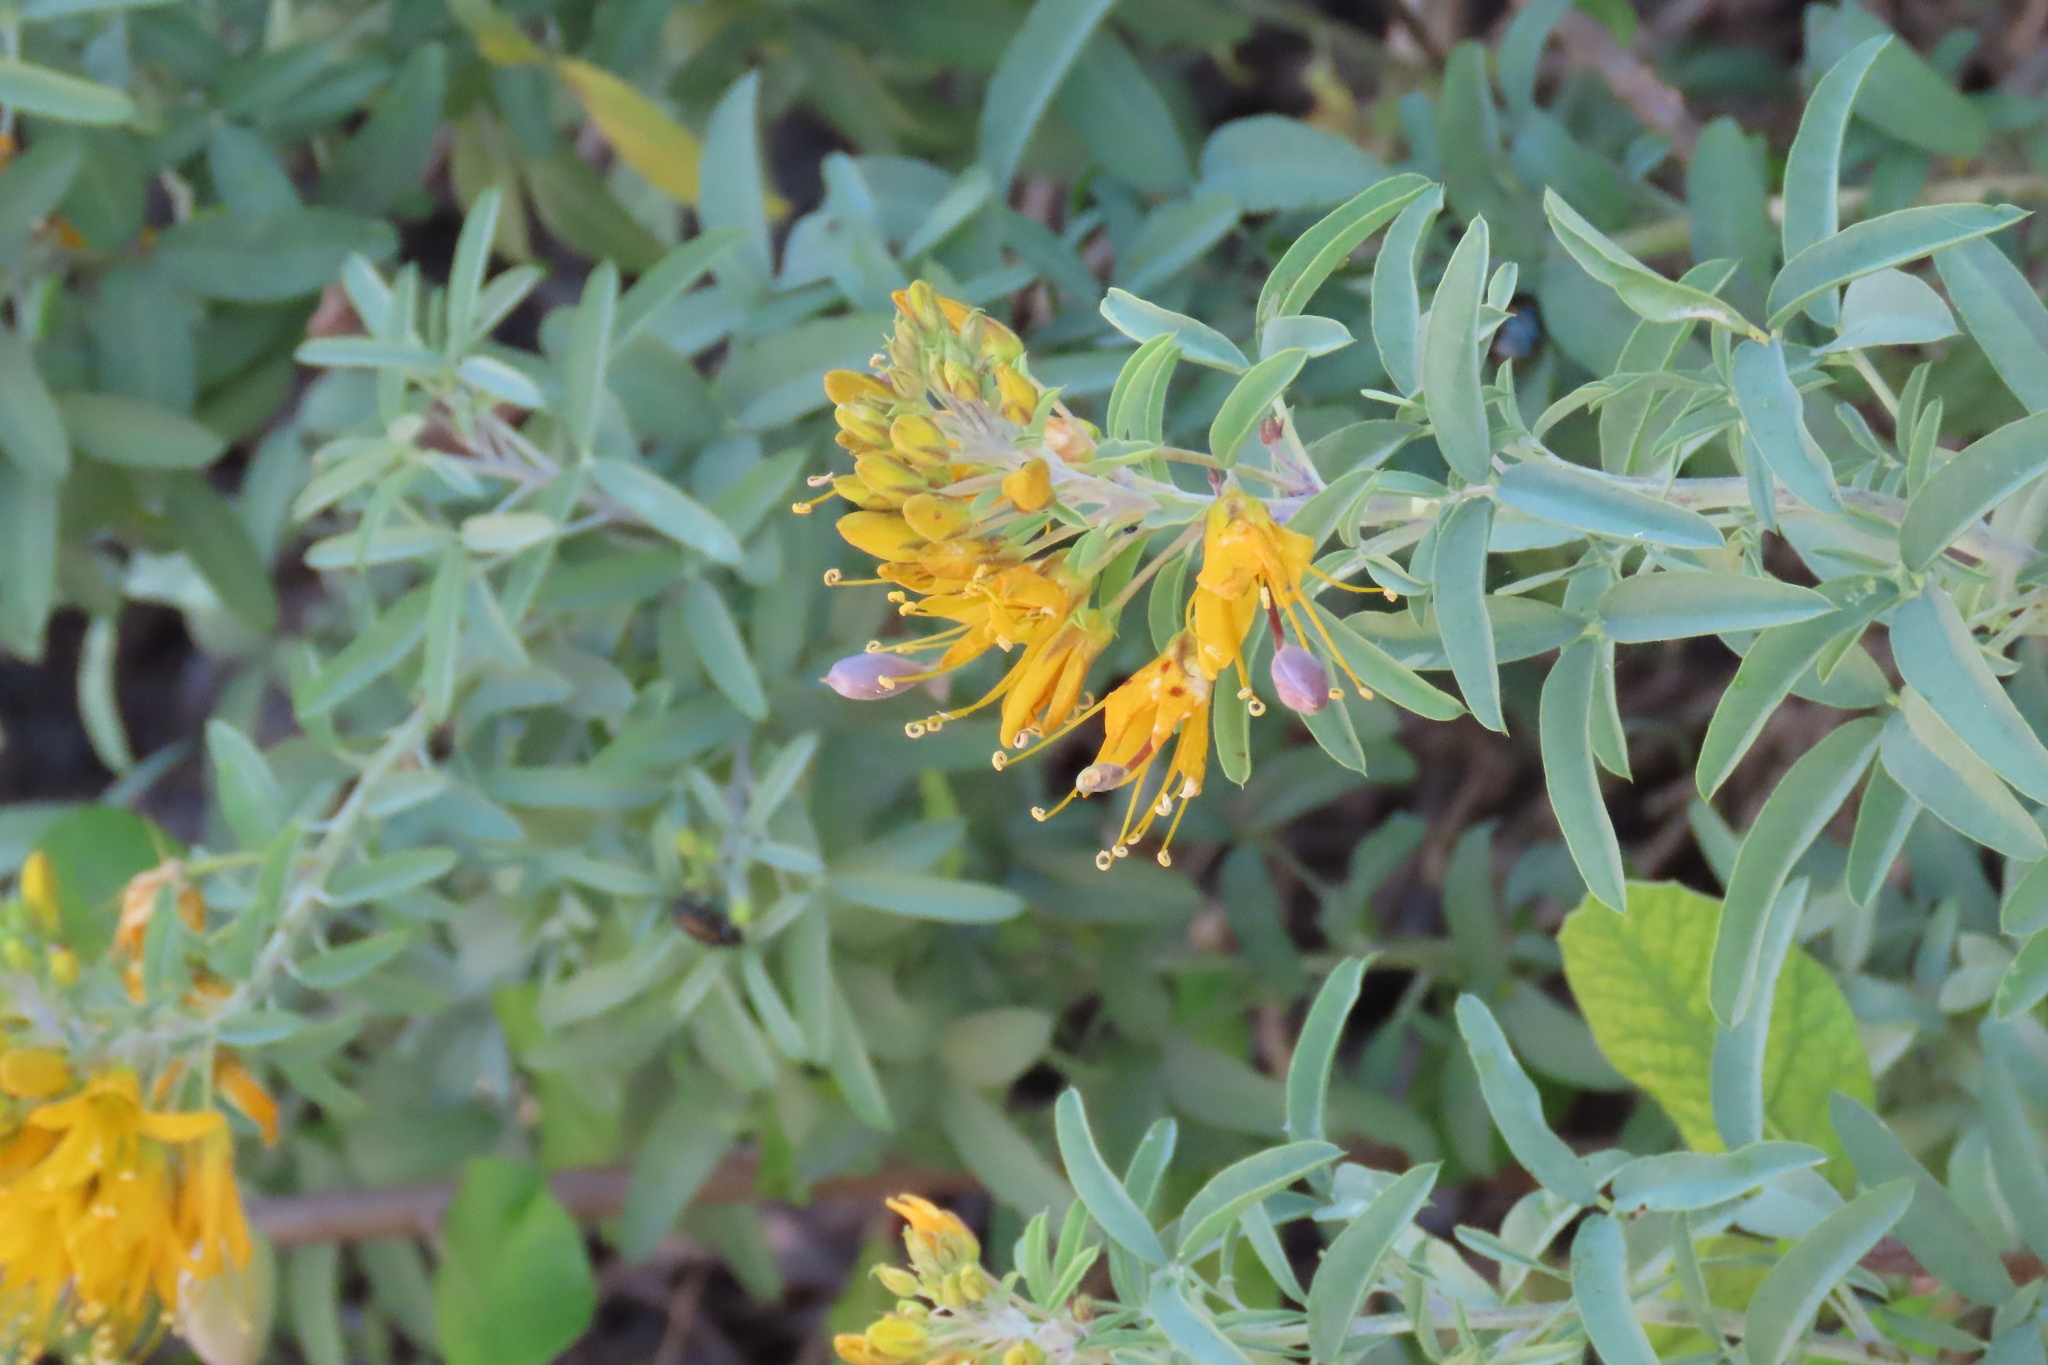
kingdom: Plantae
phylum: Tracheophyta
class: Magnoliopsida
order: Brassicales
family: Cleomaceae
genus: Cleomella
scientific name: Cleomella arborea
